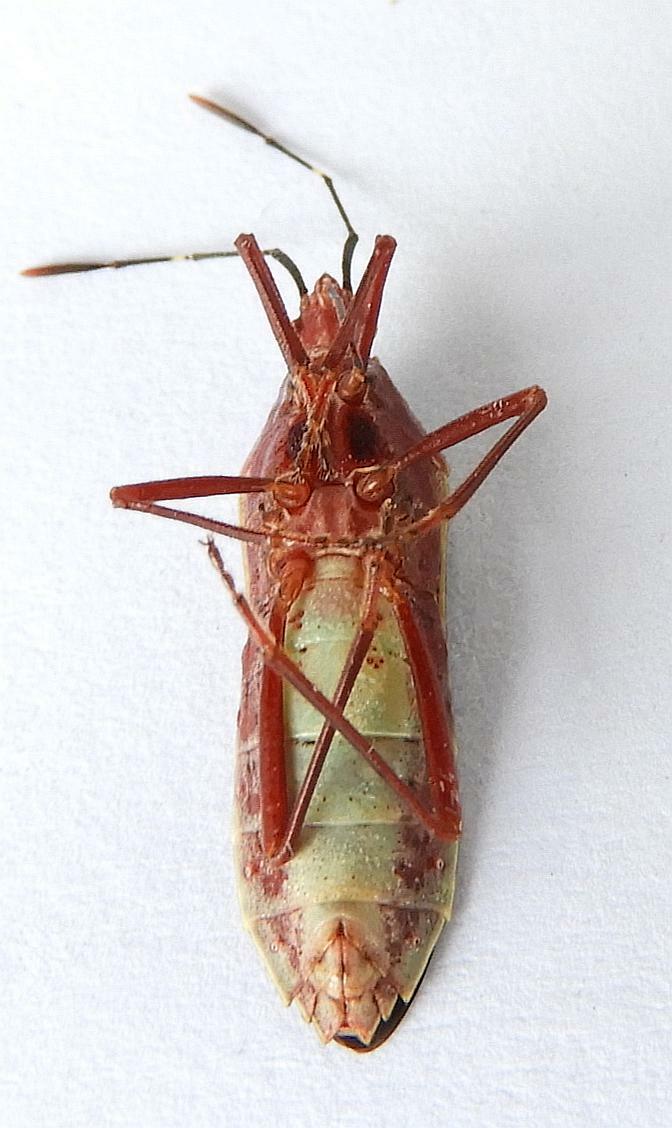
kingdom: Animalia
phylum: Arthropoda
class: Insecta
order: Hemiptera
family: Coreidae
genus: Namacus
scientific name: Namacus annulicornis
